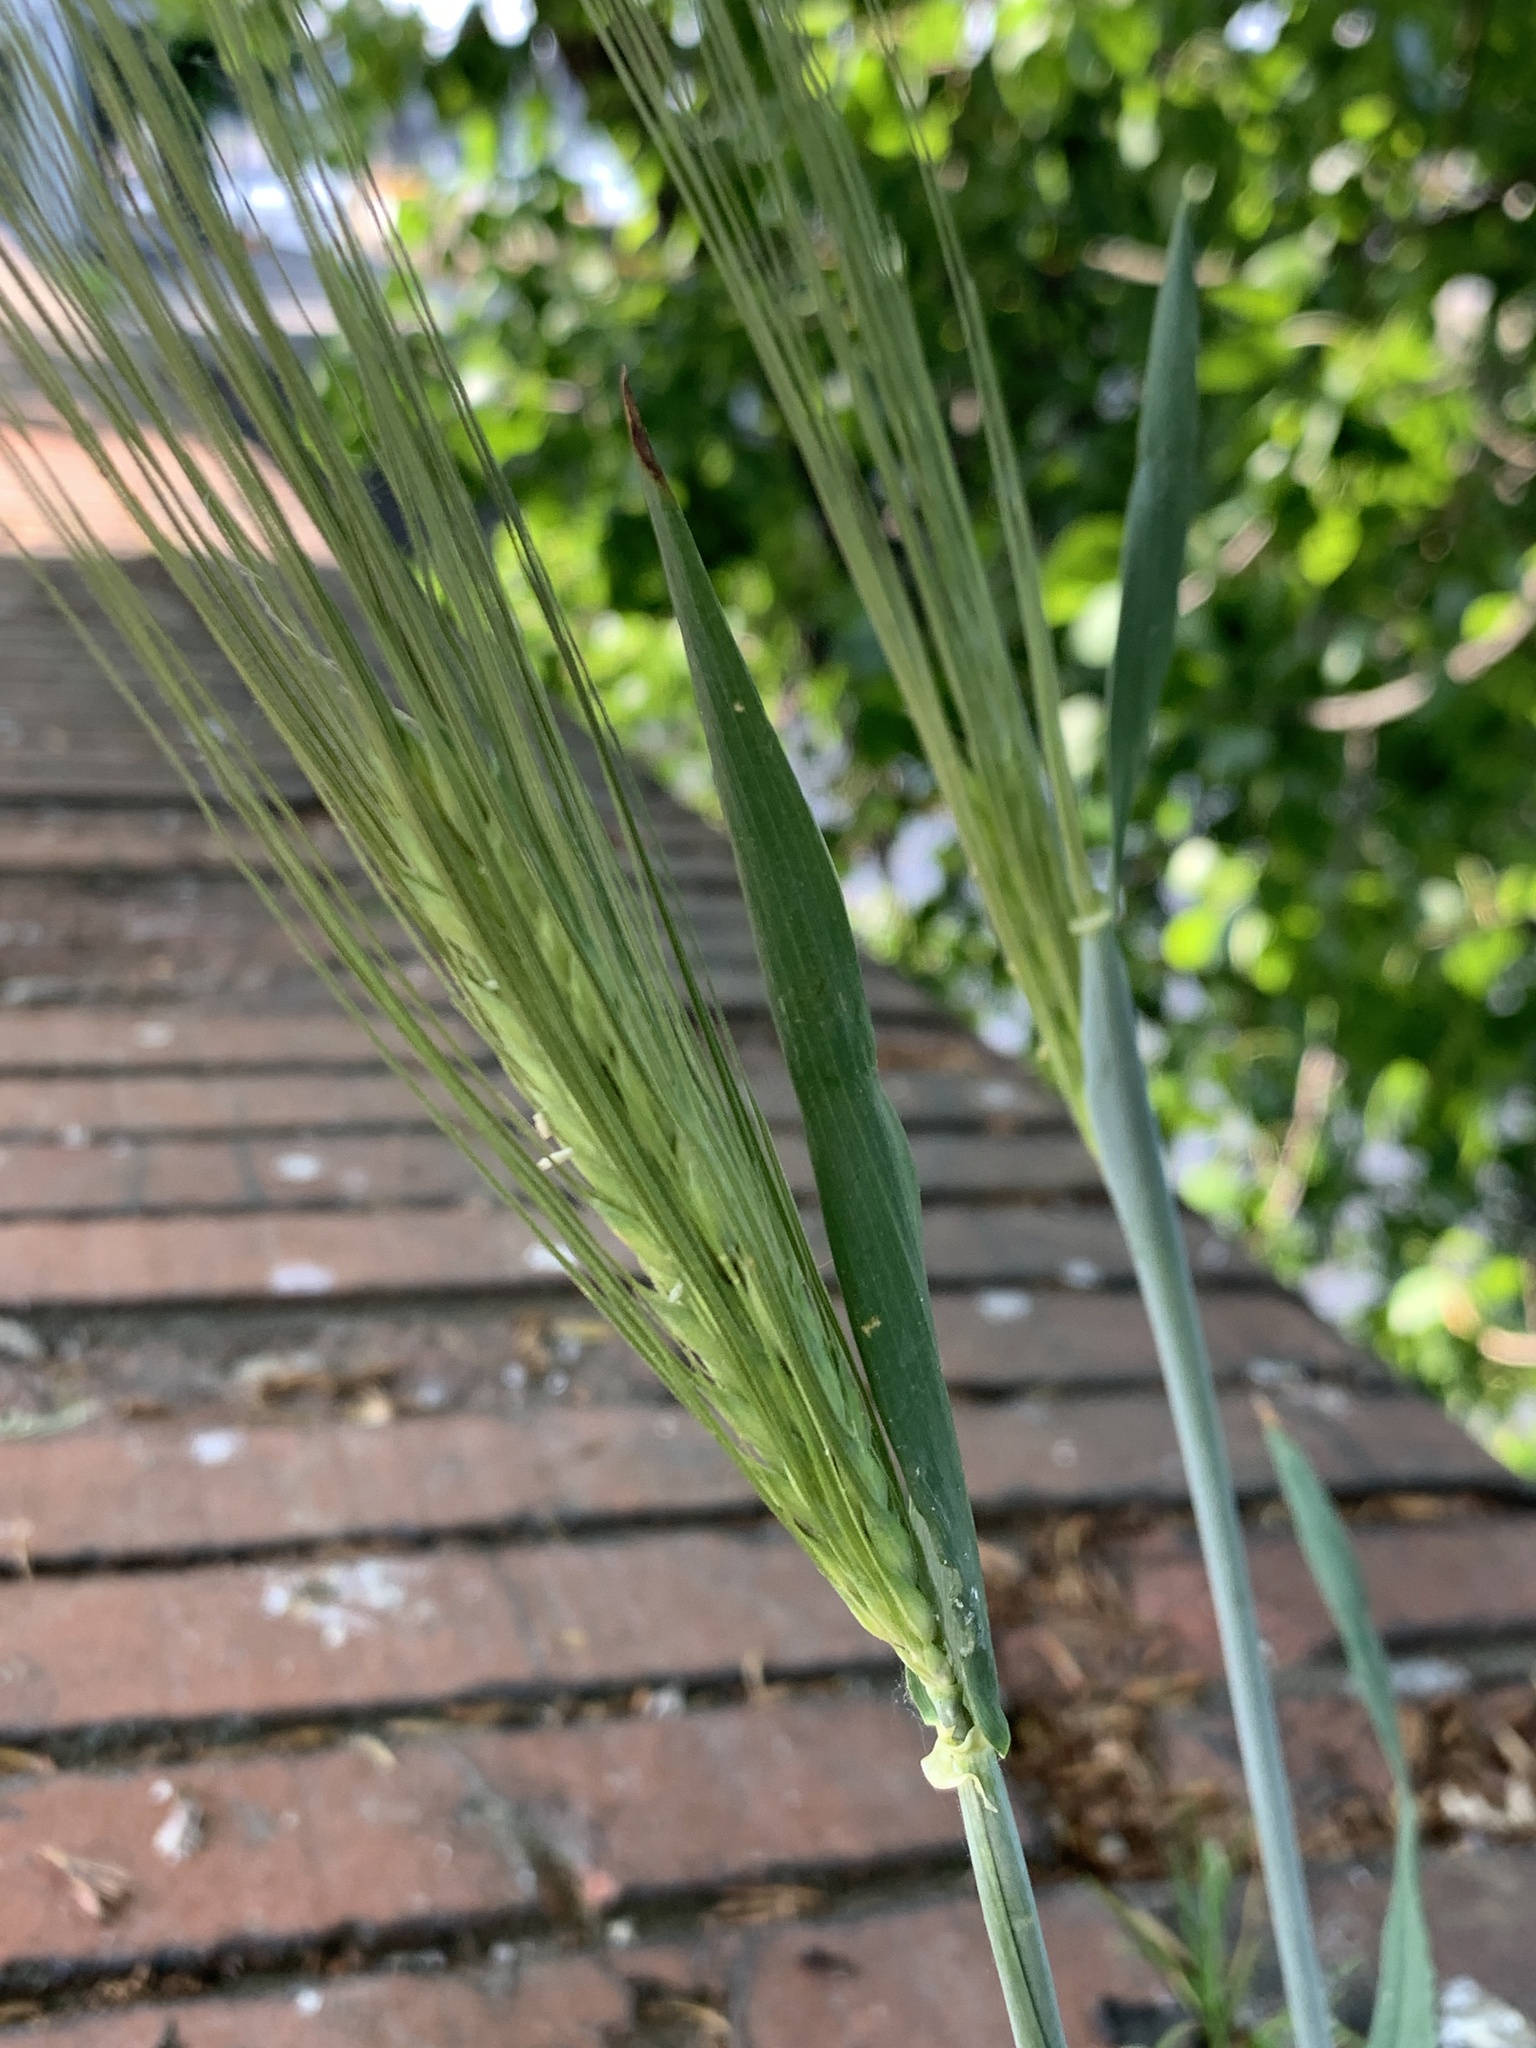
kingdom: Plantae
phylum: Tracheophyta
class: Liliopsida
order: Poales
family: Poaceae
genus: Hordeum
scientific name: Hordeum vulgare
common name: Common barley
